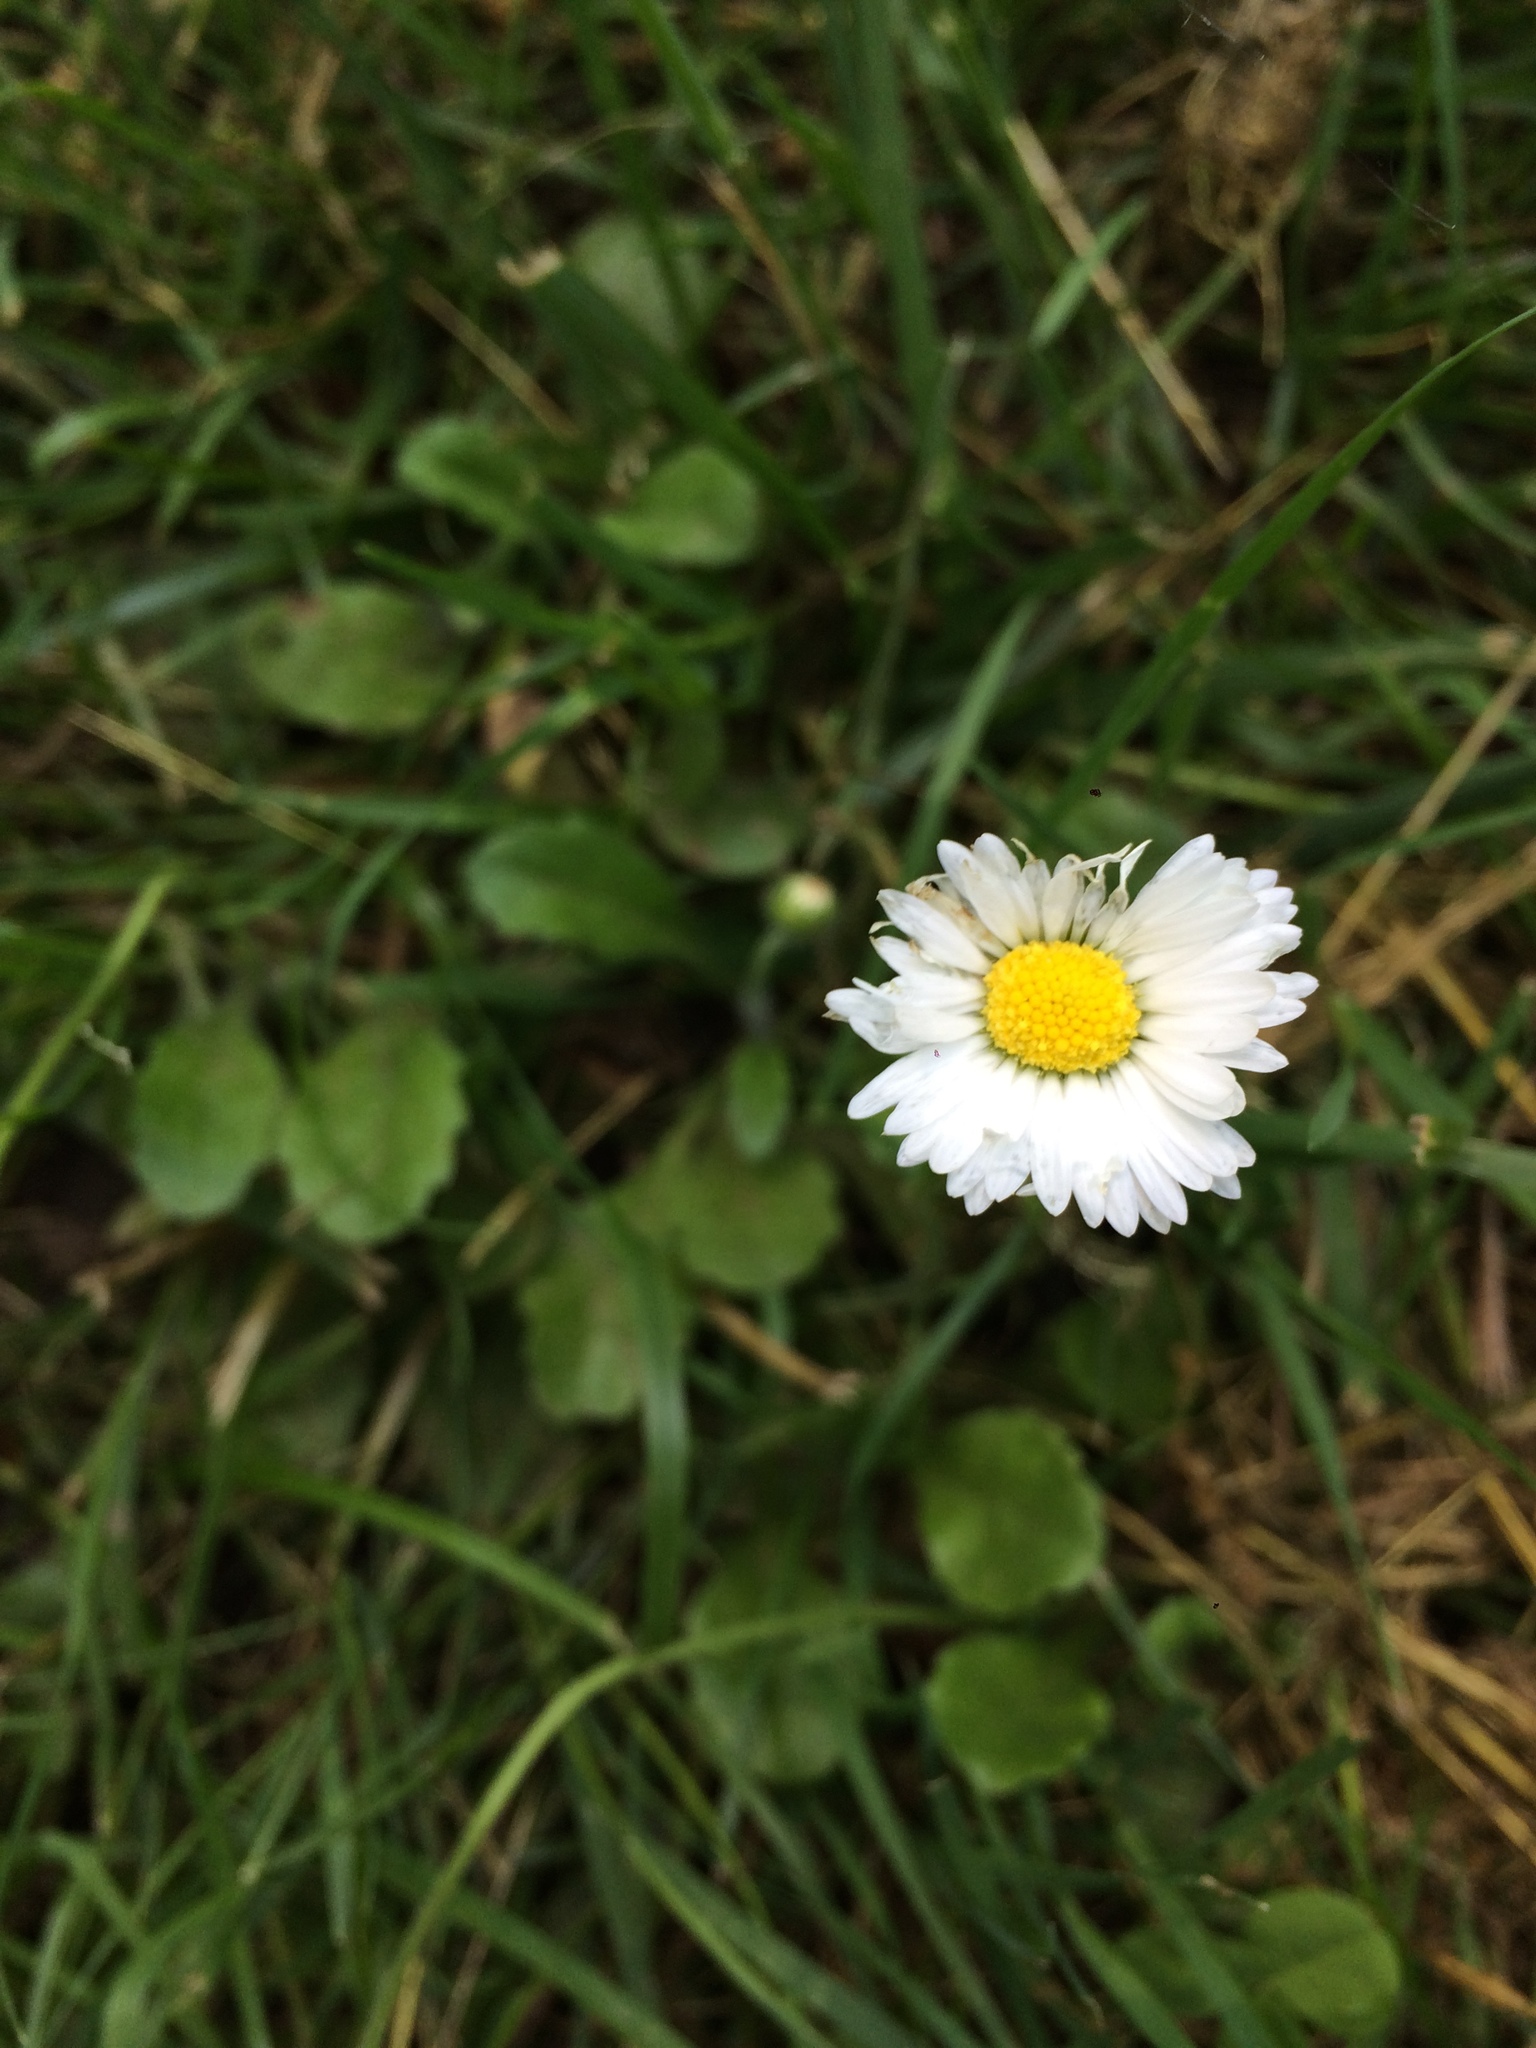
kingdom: Plantae
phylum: Tracheophyta
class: Magnoliopsida
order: Asterales
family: Asteraceae
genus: Bellis
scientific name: Bellis perennis
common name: Lawndaisy
